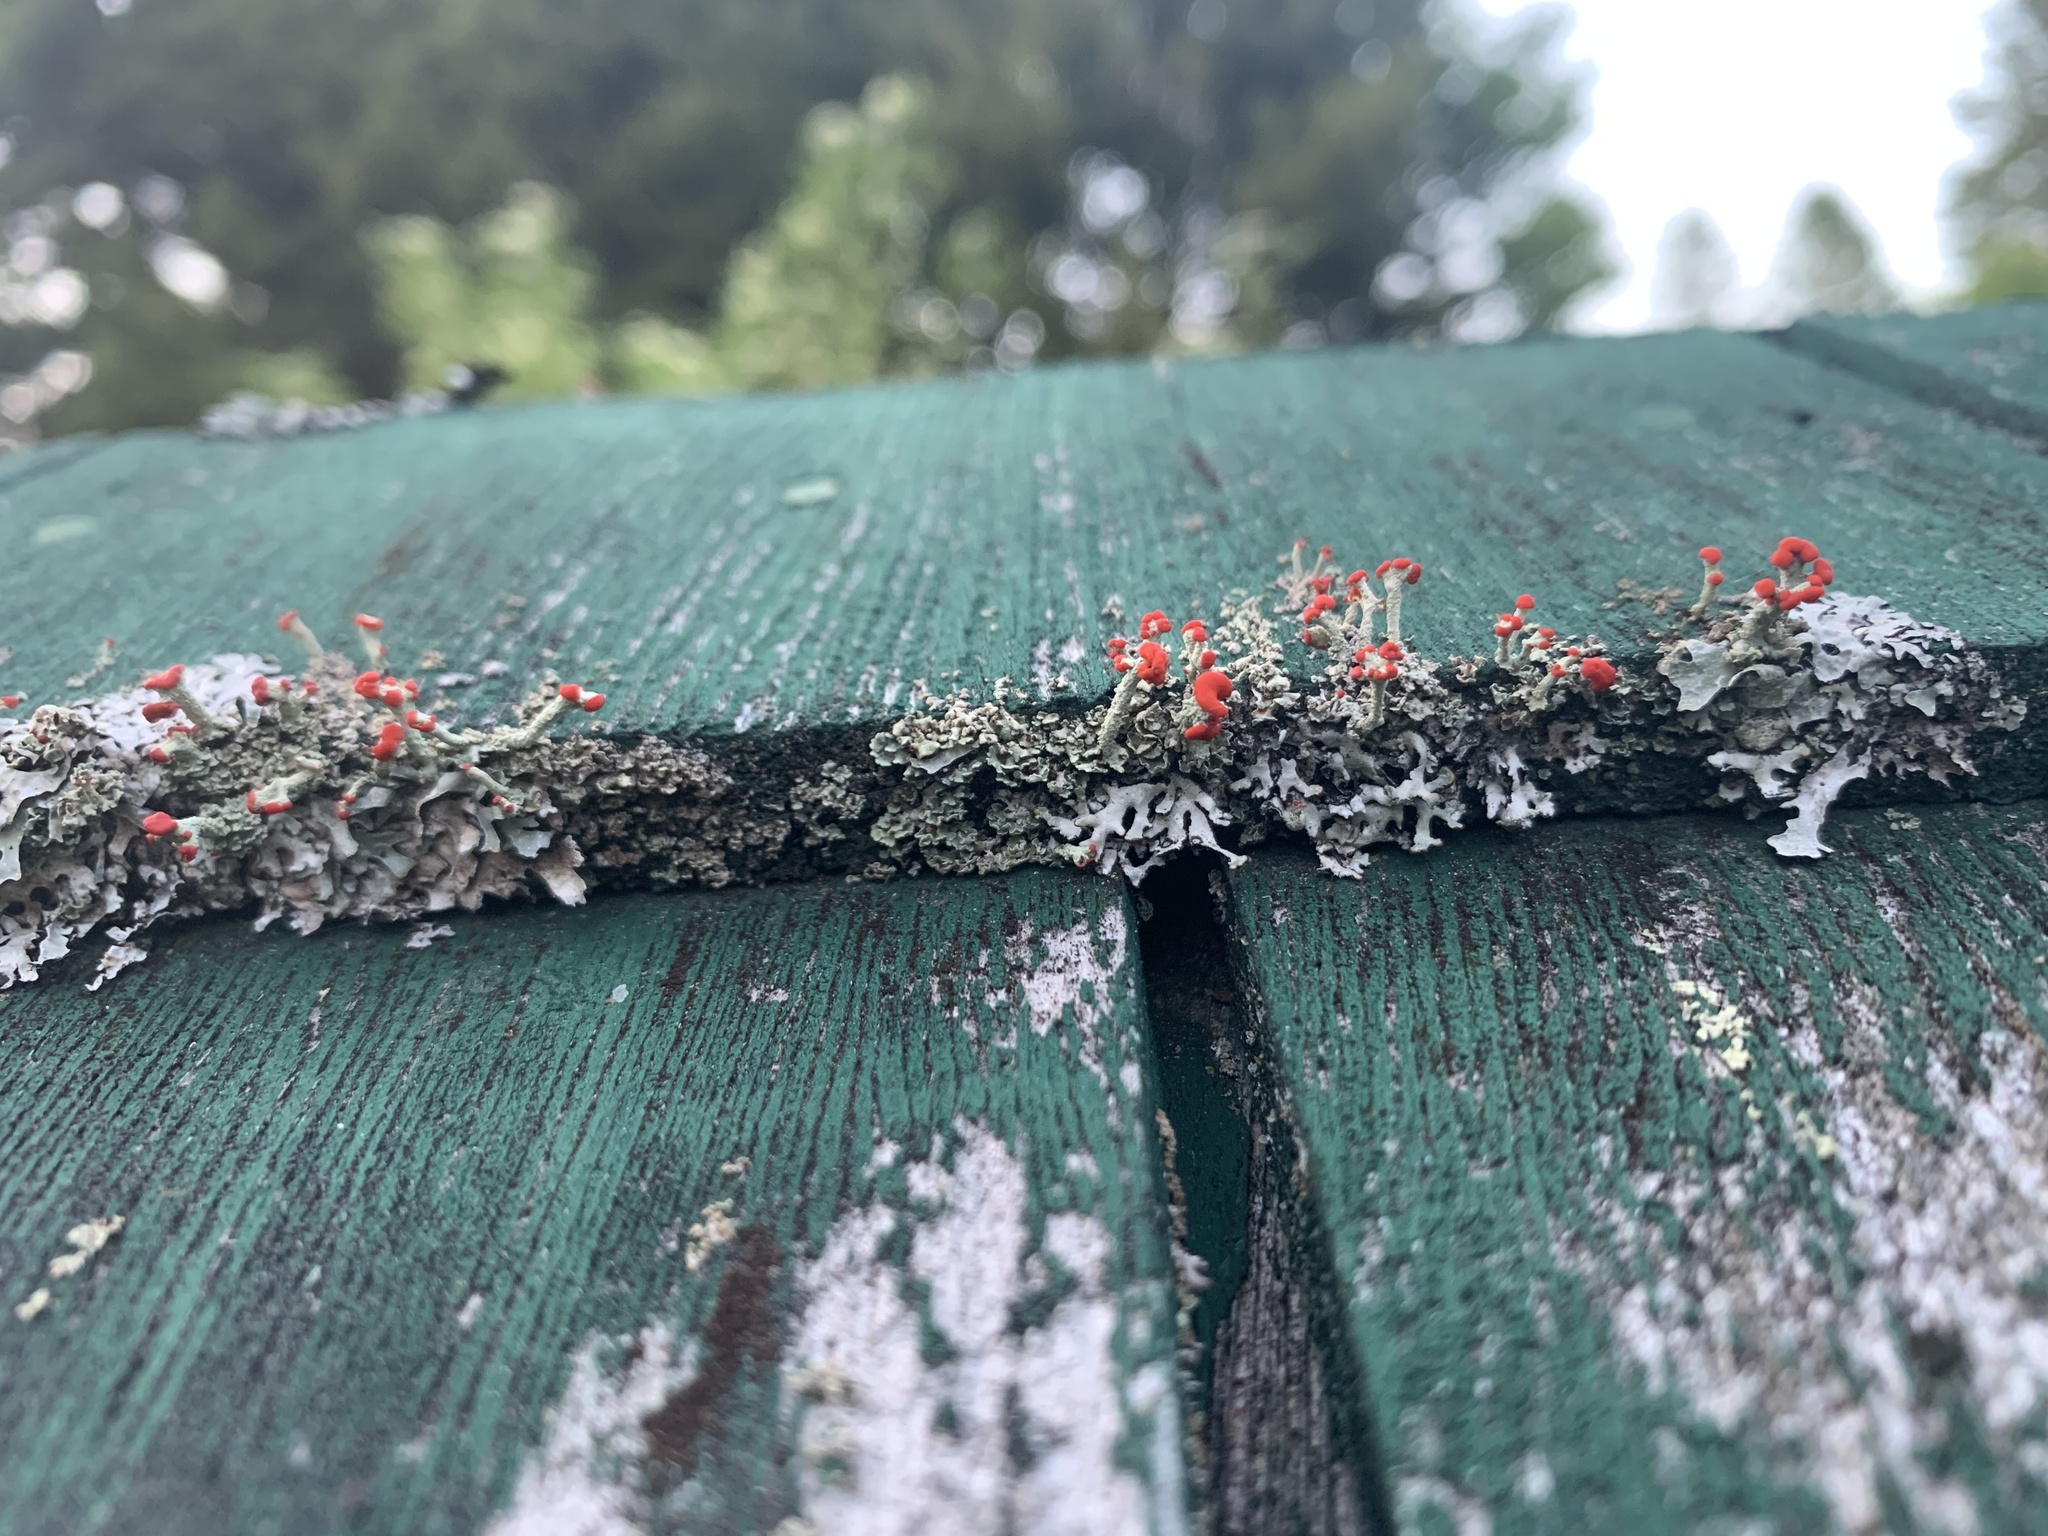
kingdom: Fungi
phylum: Ascomycota
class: Lecanoromycetes
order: Lecanorales
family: Cladoniaceae
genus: Cladonia
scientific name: Cladonia floerkeana
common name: Gritty british soldiers lichen
